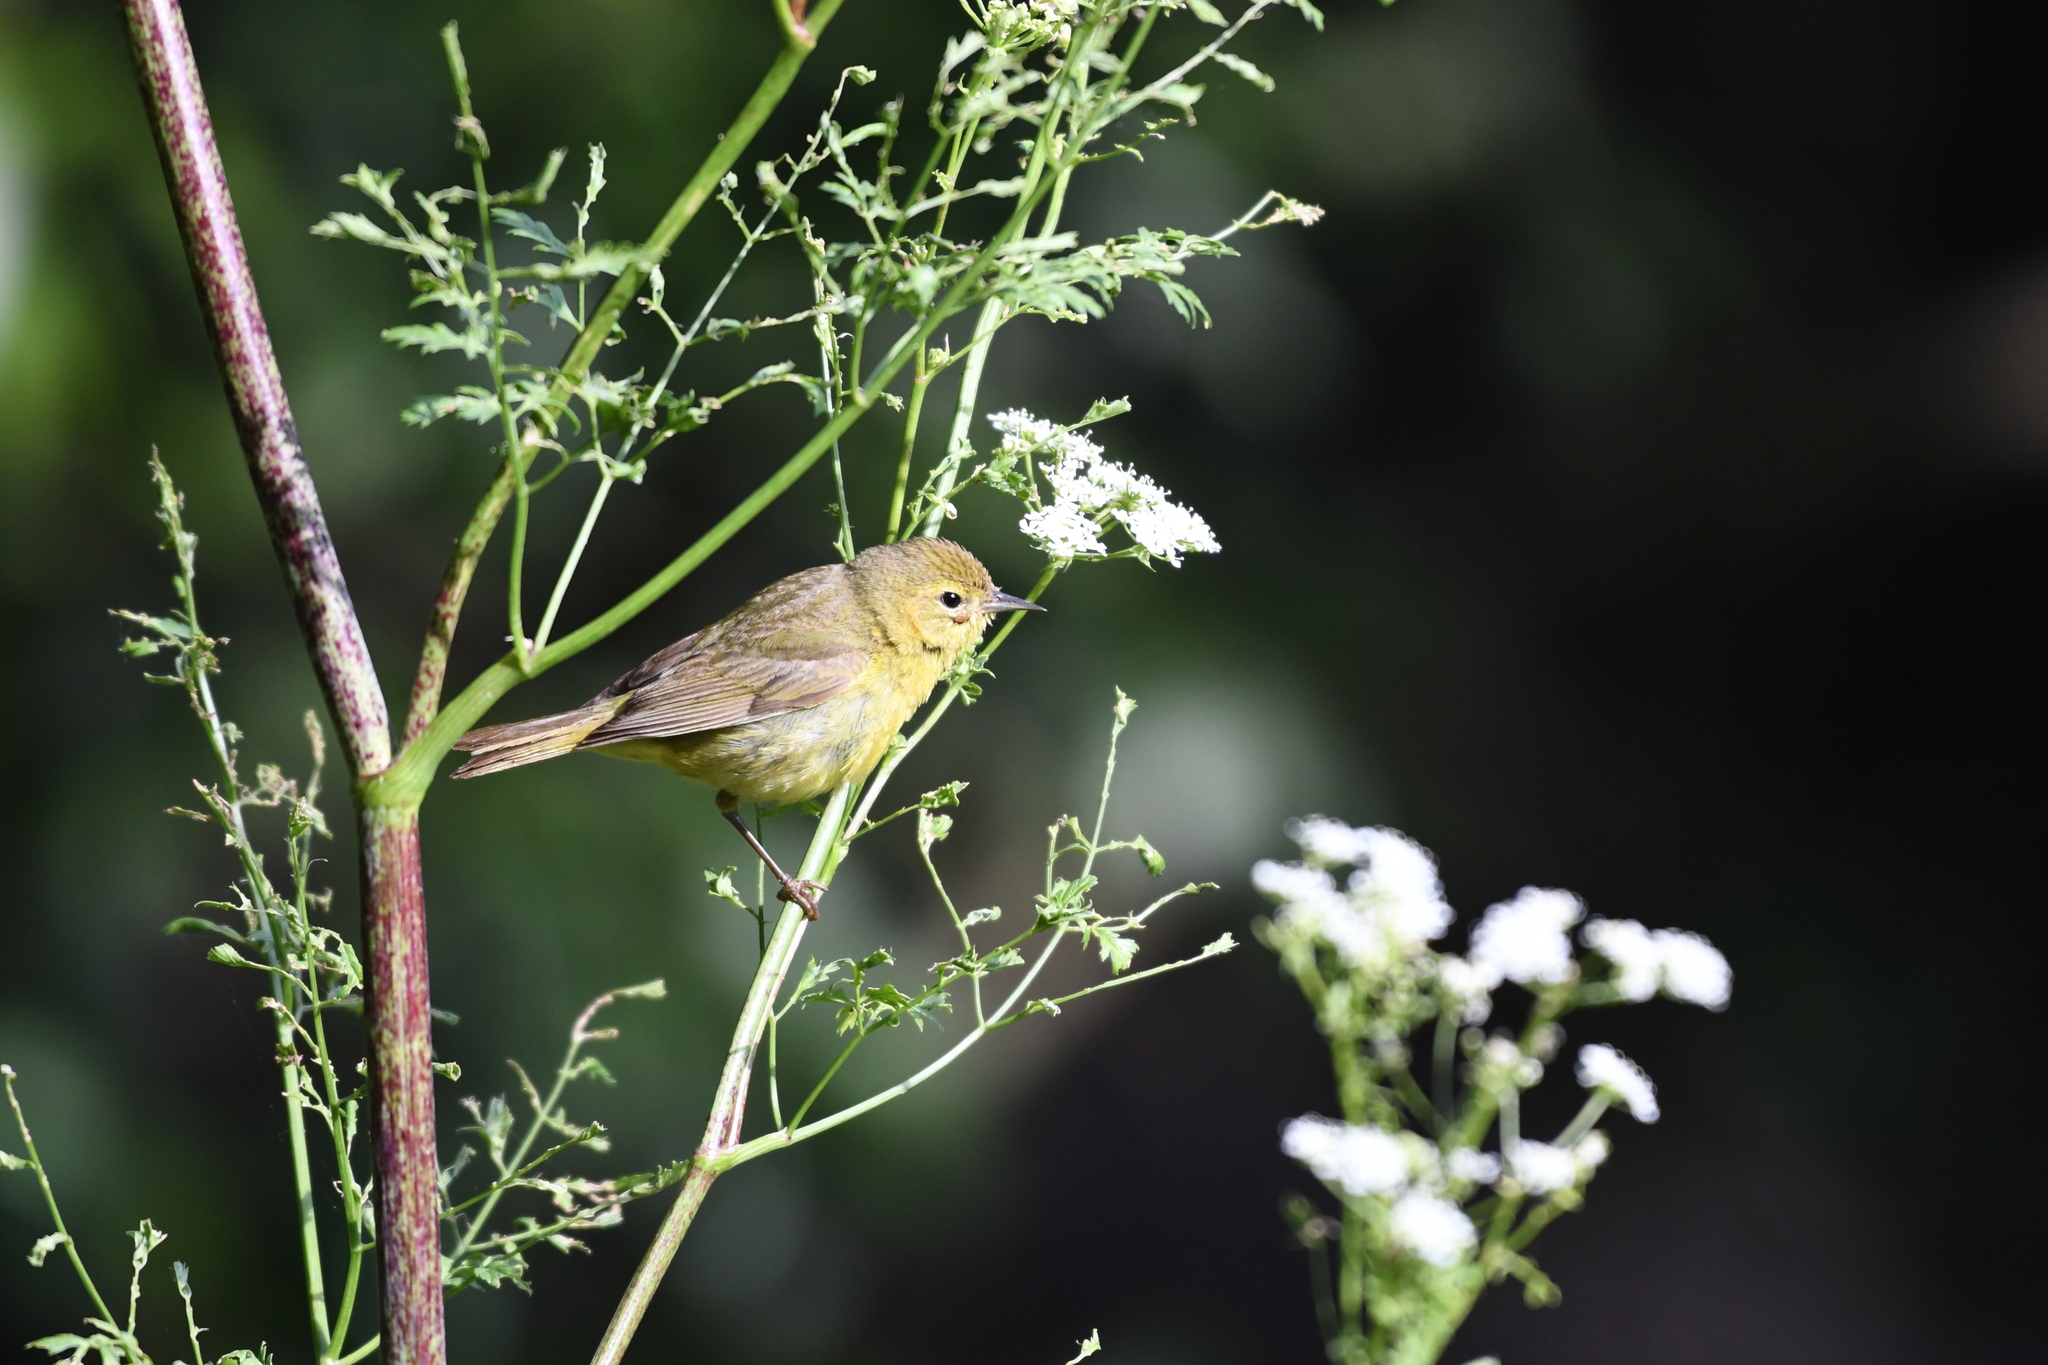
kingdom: Animalia
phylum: Chordata
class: Aves
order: Passeriformes
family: Parulidae
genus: Leiothlypis
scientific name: Leiothlypis celata
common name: Orange-crowned warbler
